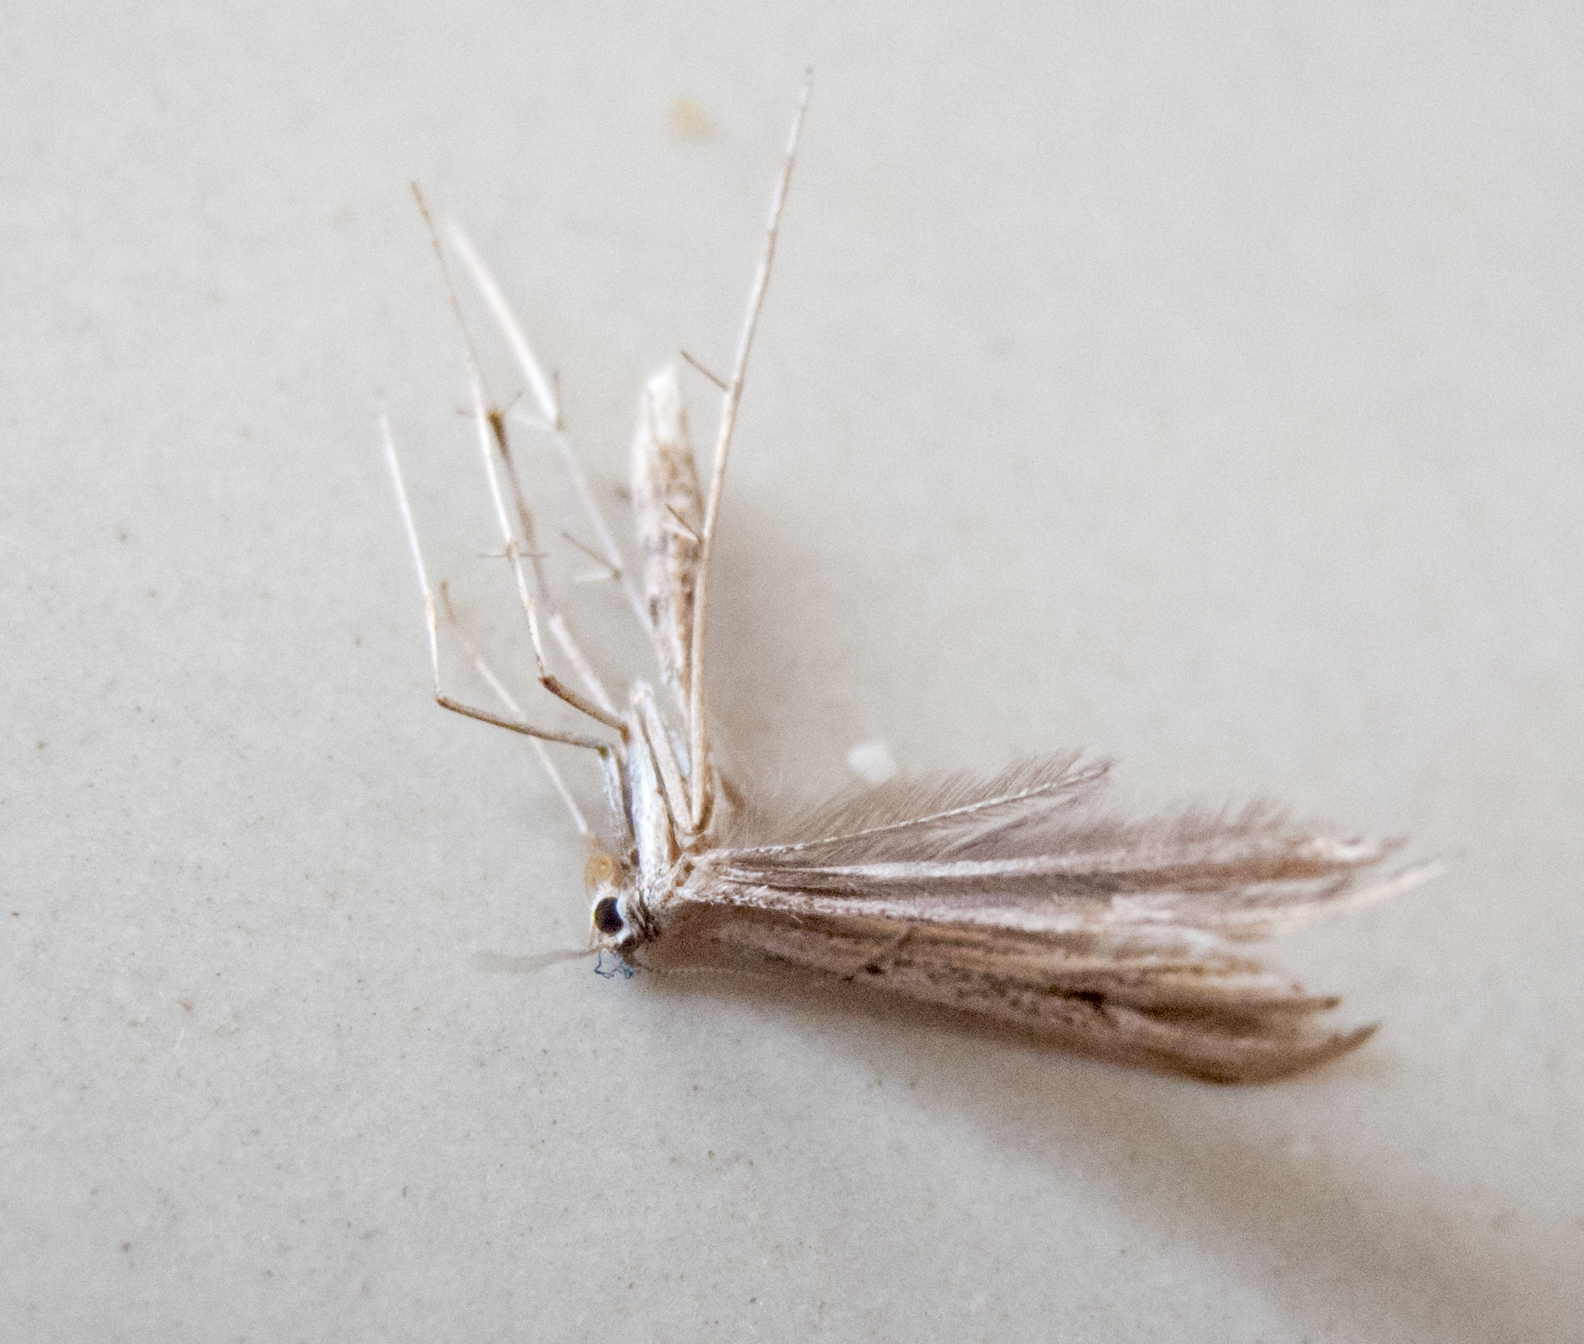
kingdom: Animalia
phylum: Arthropoda
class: Insecta
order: Lepidoptera
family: Pterophoridae
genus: Emmelina
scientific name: Emmelina monodactyla
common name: Common plume
